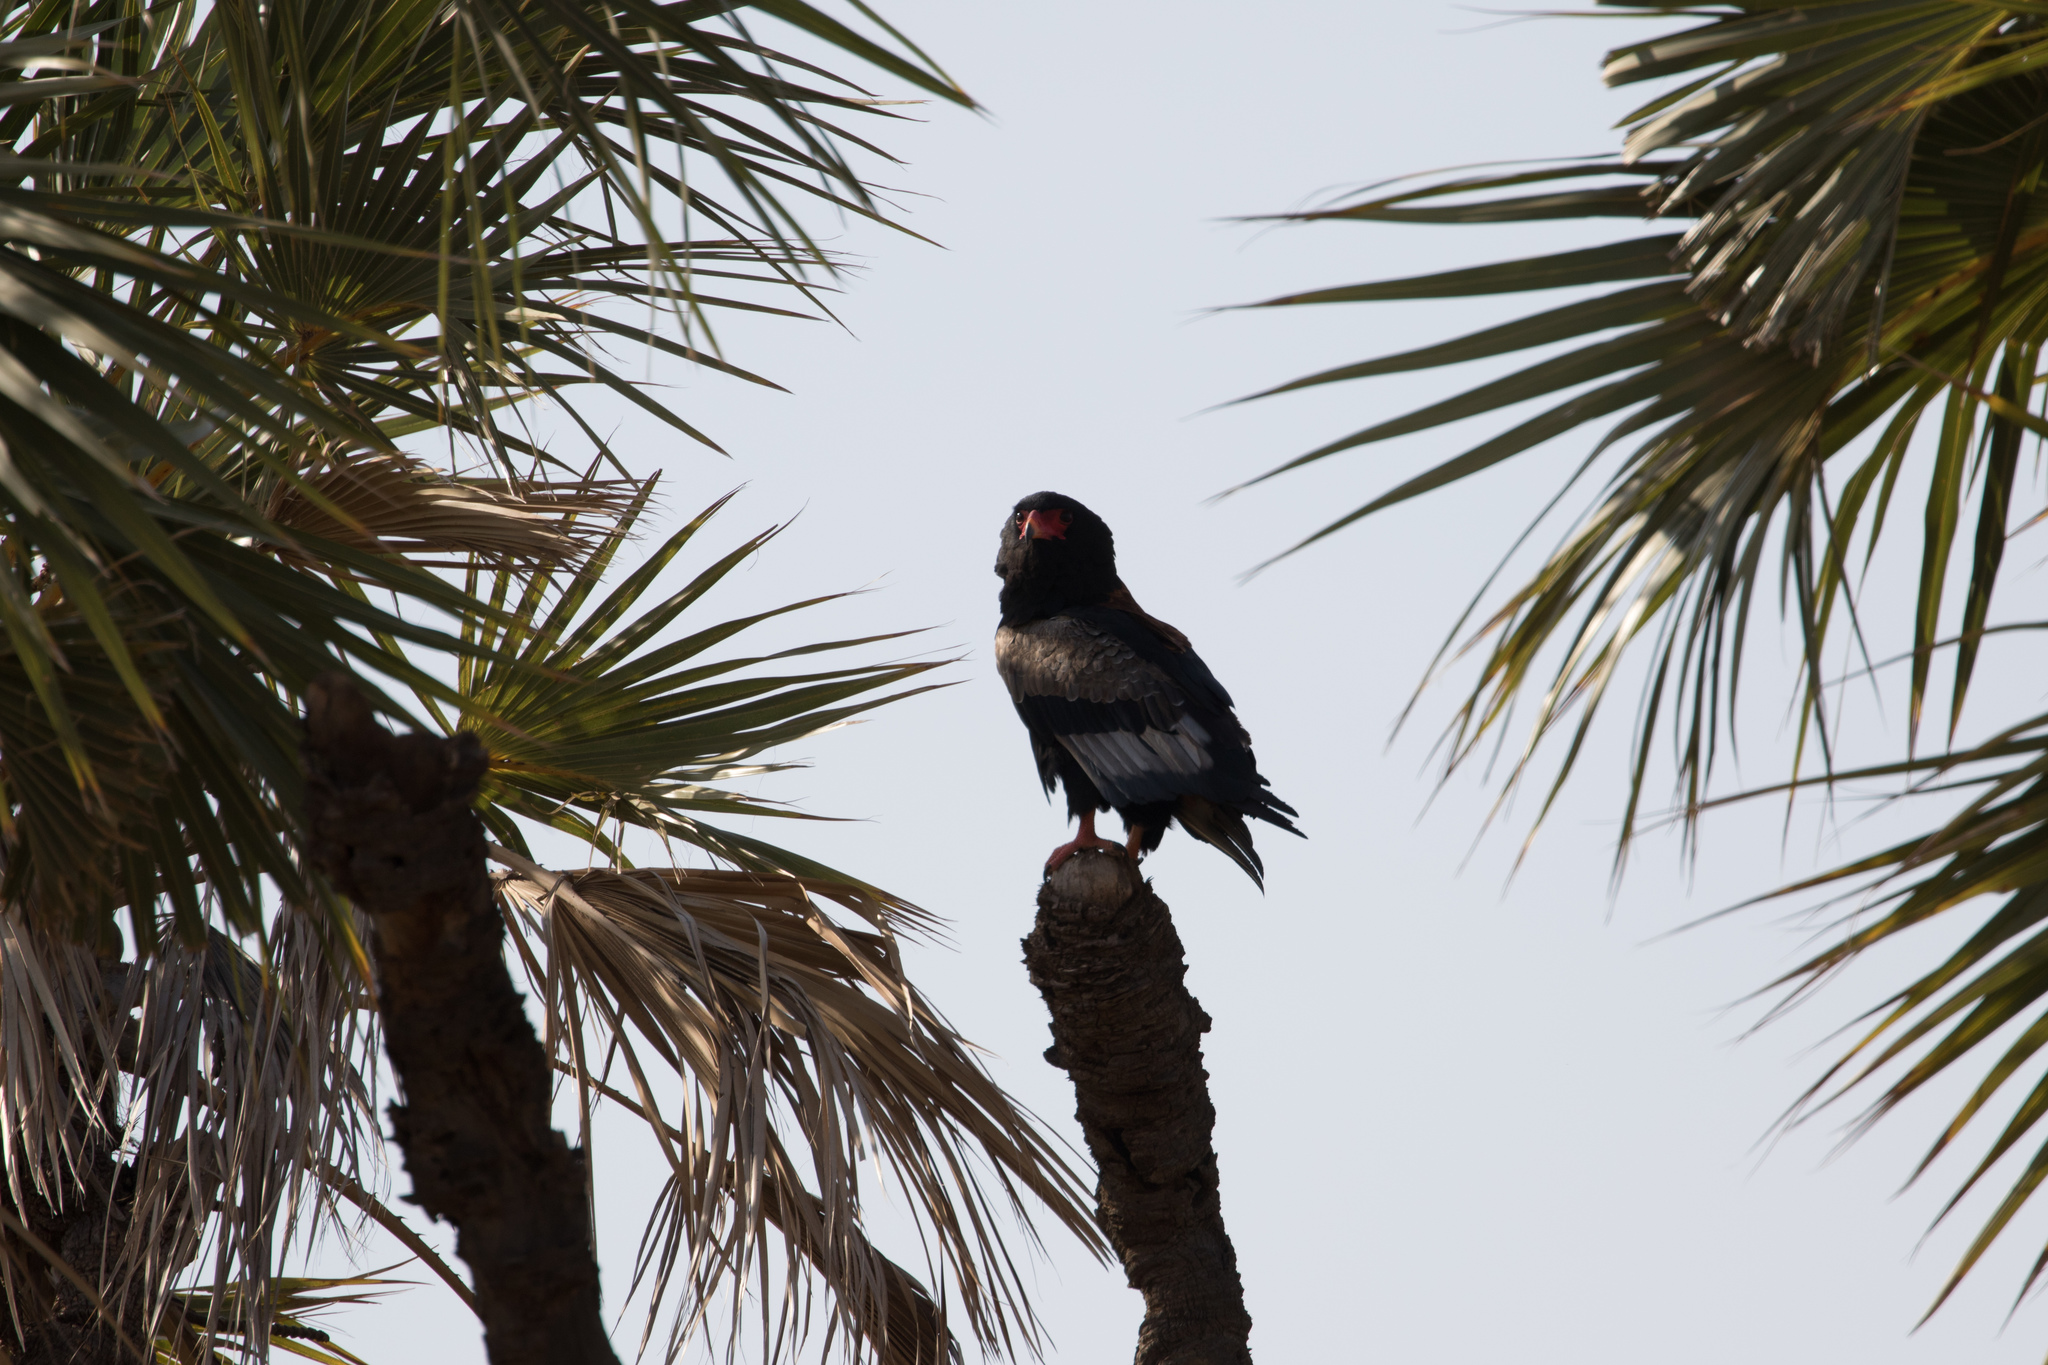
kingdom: Animalia
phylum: Chordata
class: Aves
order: Accipitriformes
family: Accipitridae
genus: Terathopius
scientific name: Terathopius ecaudatus
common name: Bateleur
